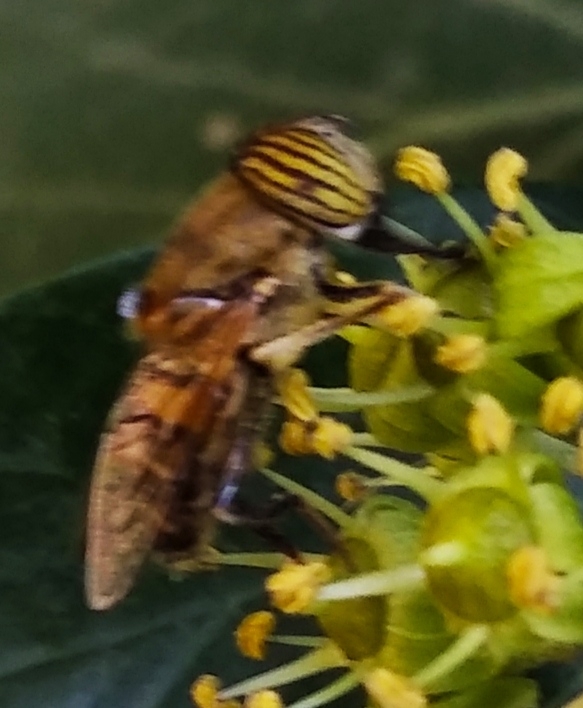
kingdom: Animalia
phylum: Arthropoda
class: Insecta
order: Diptera
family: Syrphidae
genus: Eristalinus
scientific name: Eristalinus taeniops
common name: Syrphid fly
